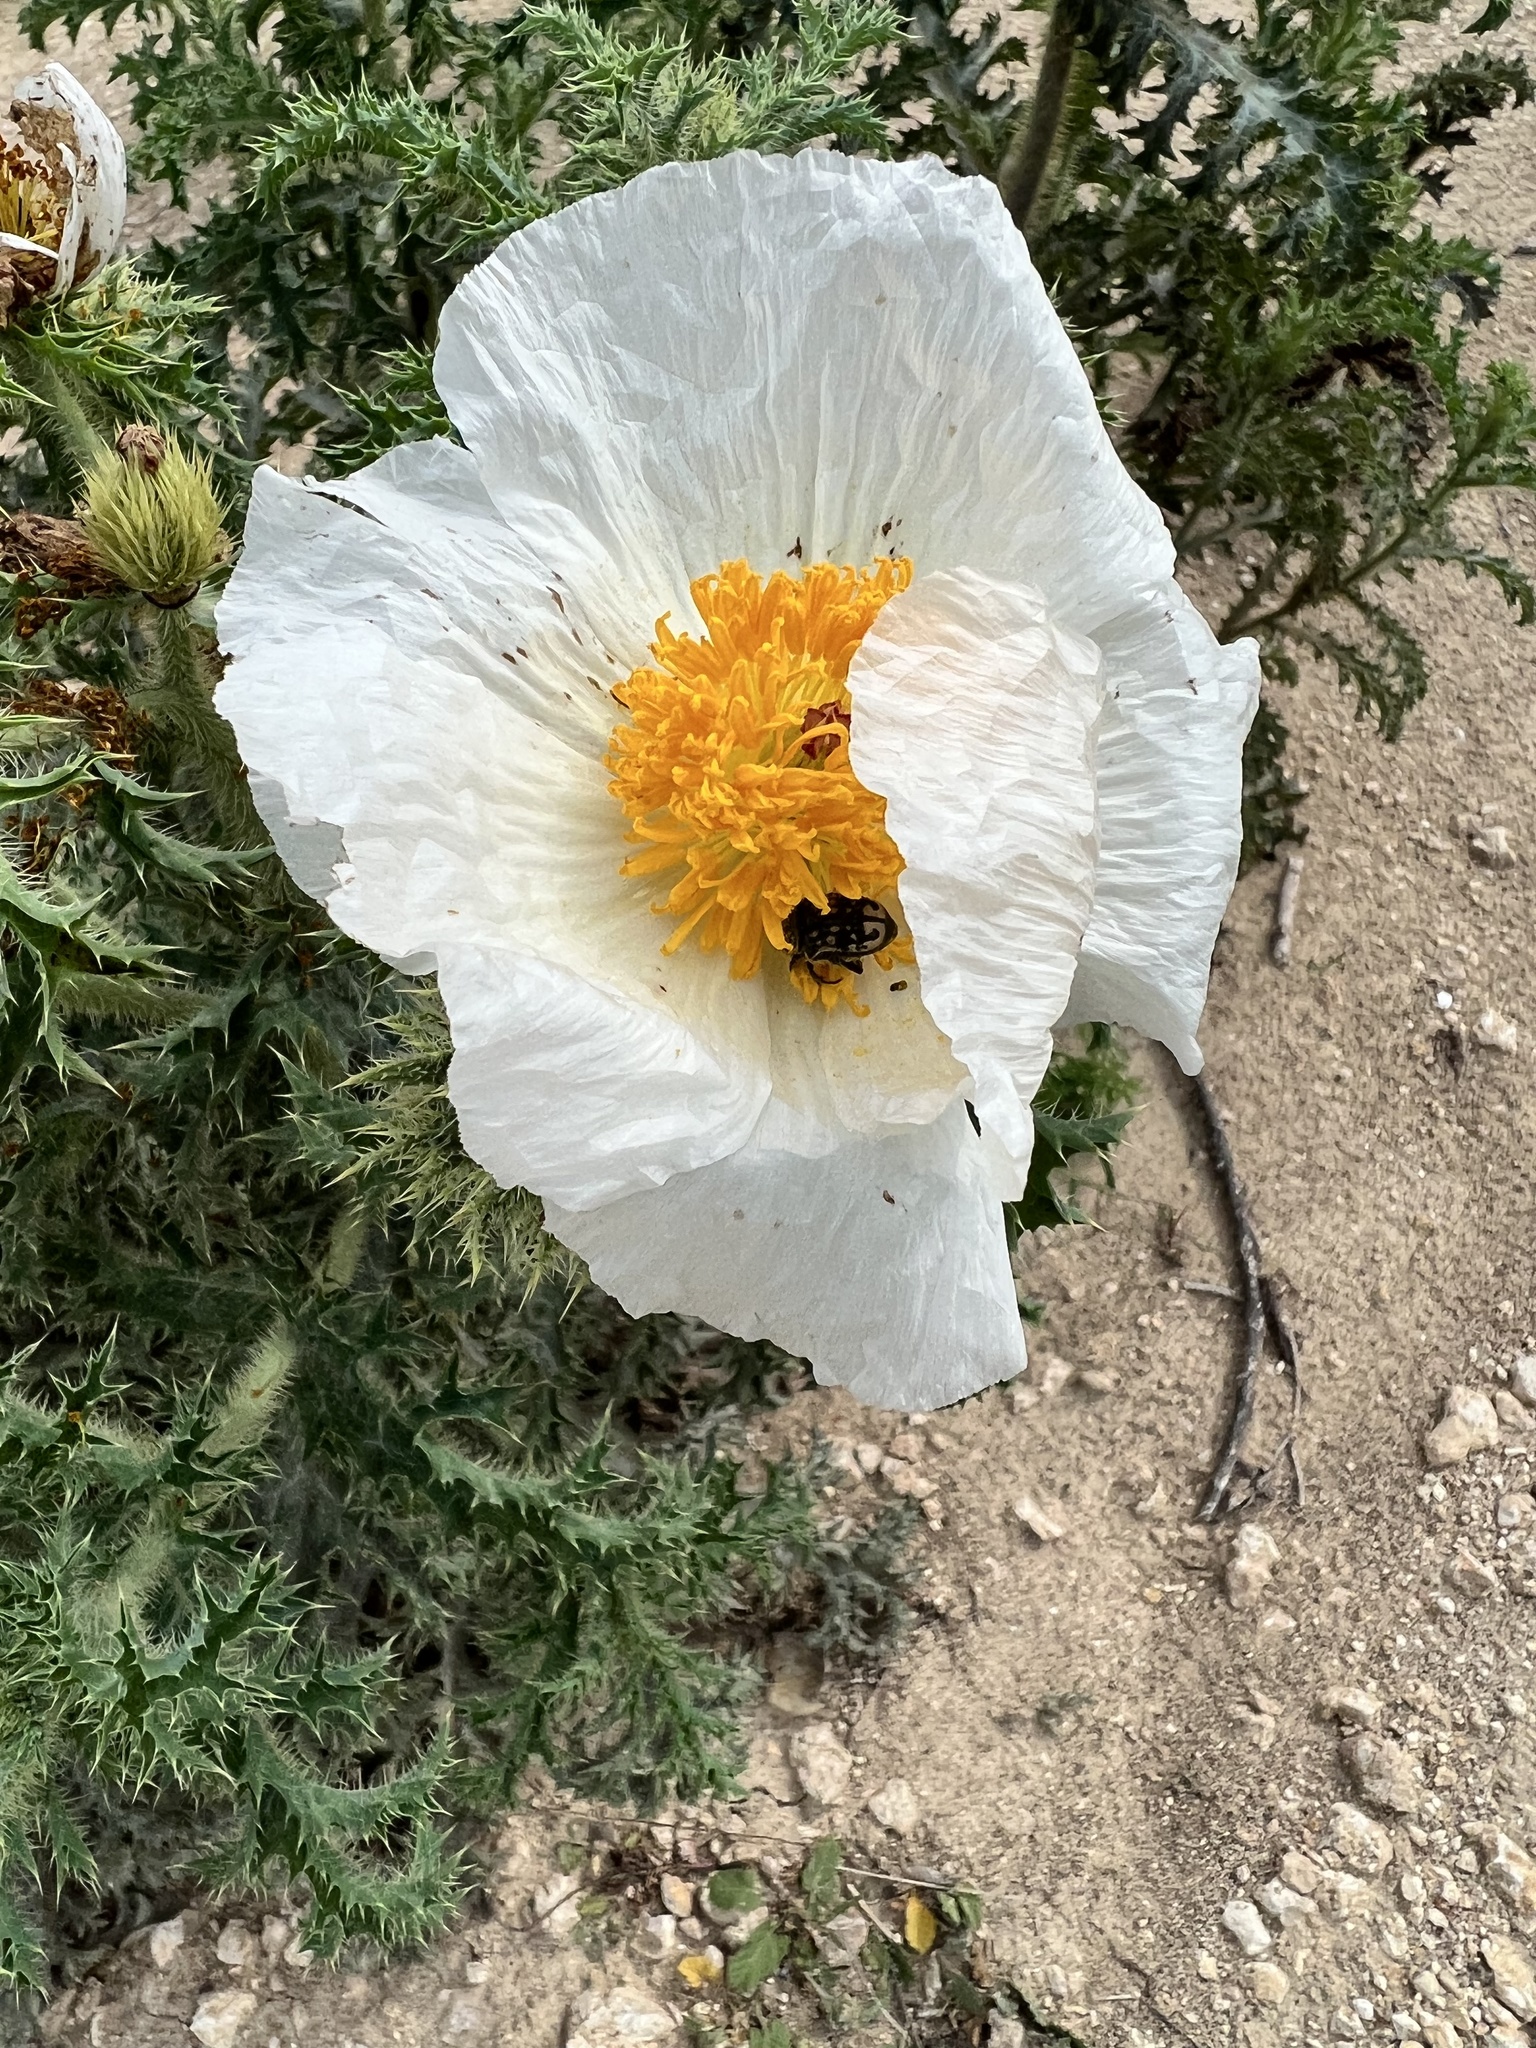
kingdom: Animalia
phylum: Arthropoda
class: Insecta
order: Coleoptera
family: Scarabaeidae
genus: Euphoria
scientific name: Euphoria kernii
